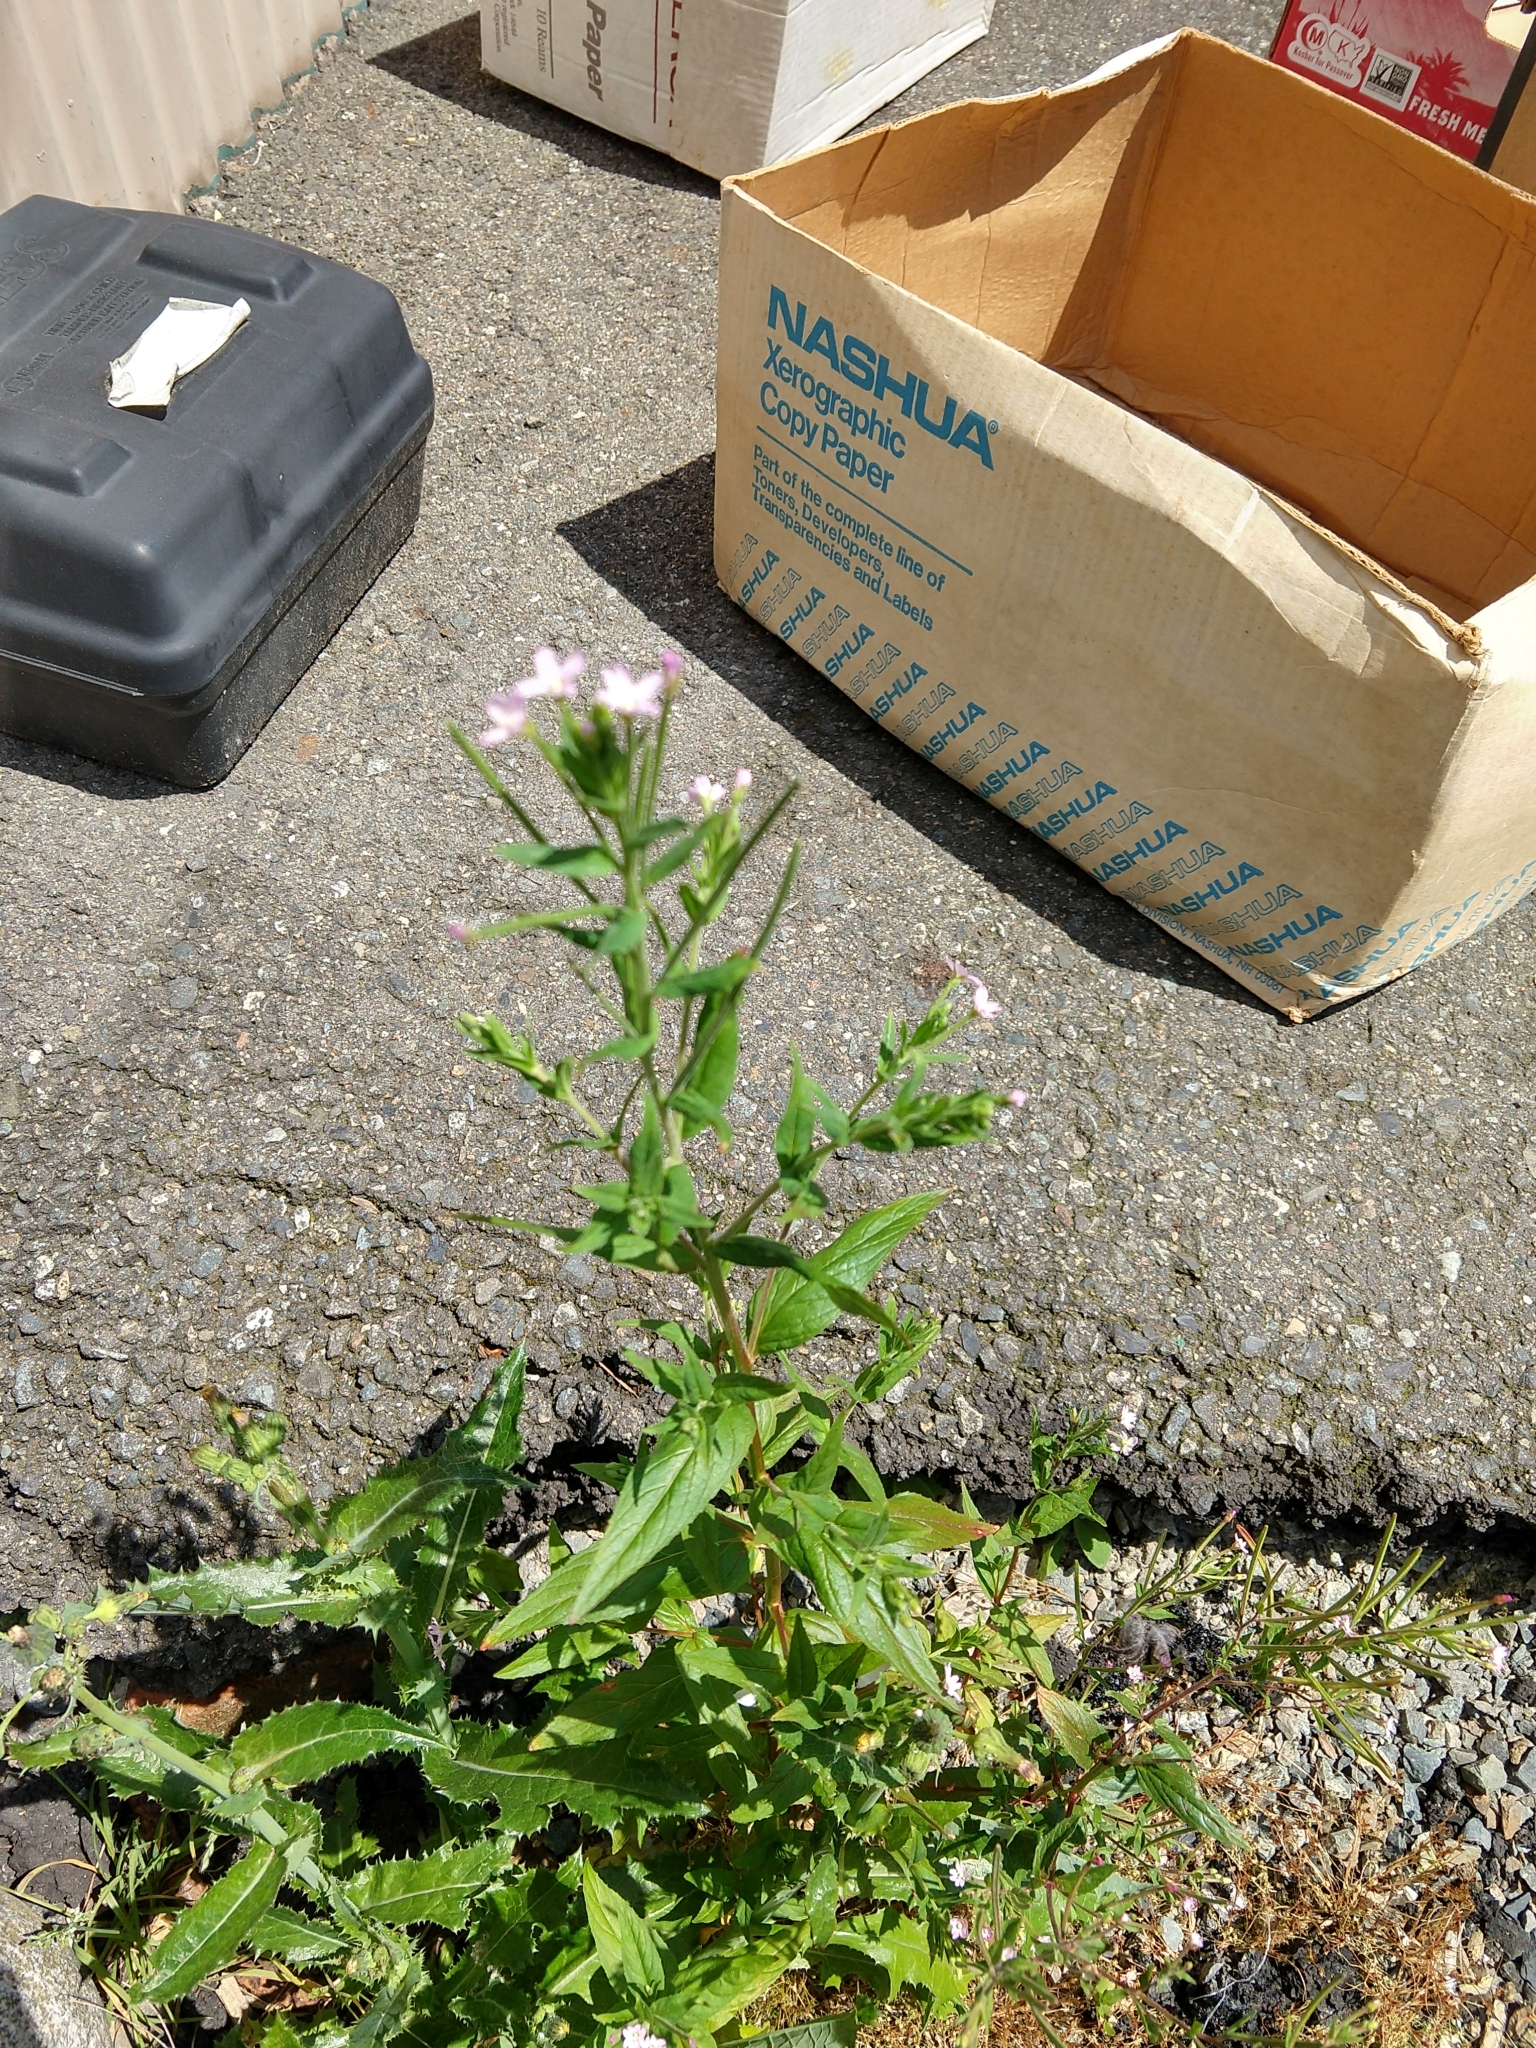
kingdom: Plantae
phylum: Tracheophyta
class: Magnoliopsida
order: Myrtales
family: Onagraceae
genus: Epilobium
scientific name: Epilobium ciliatum
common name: American willowherb
